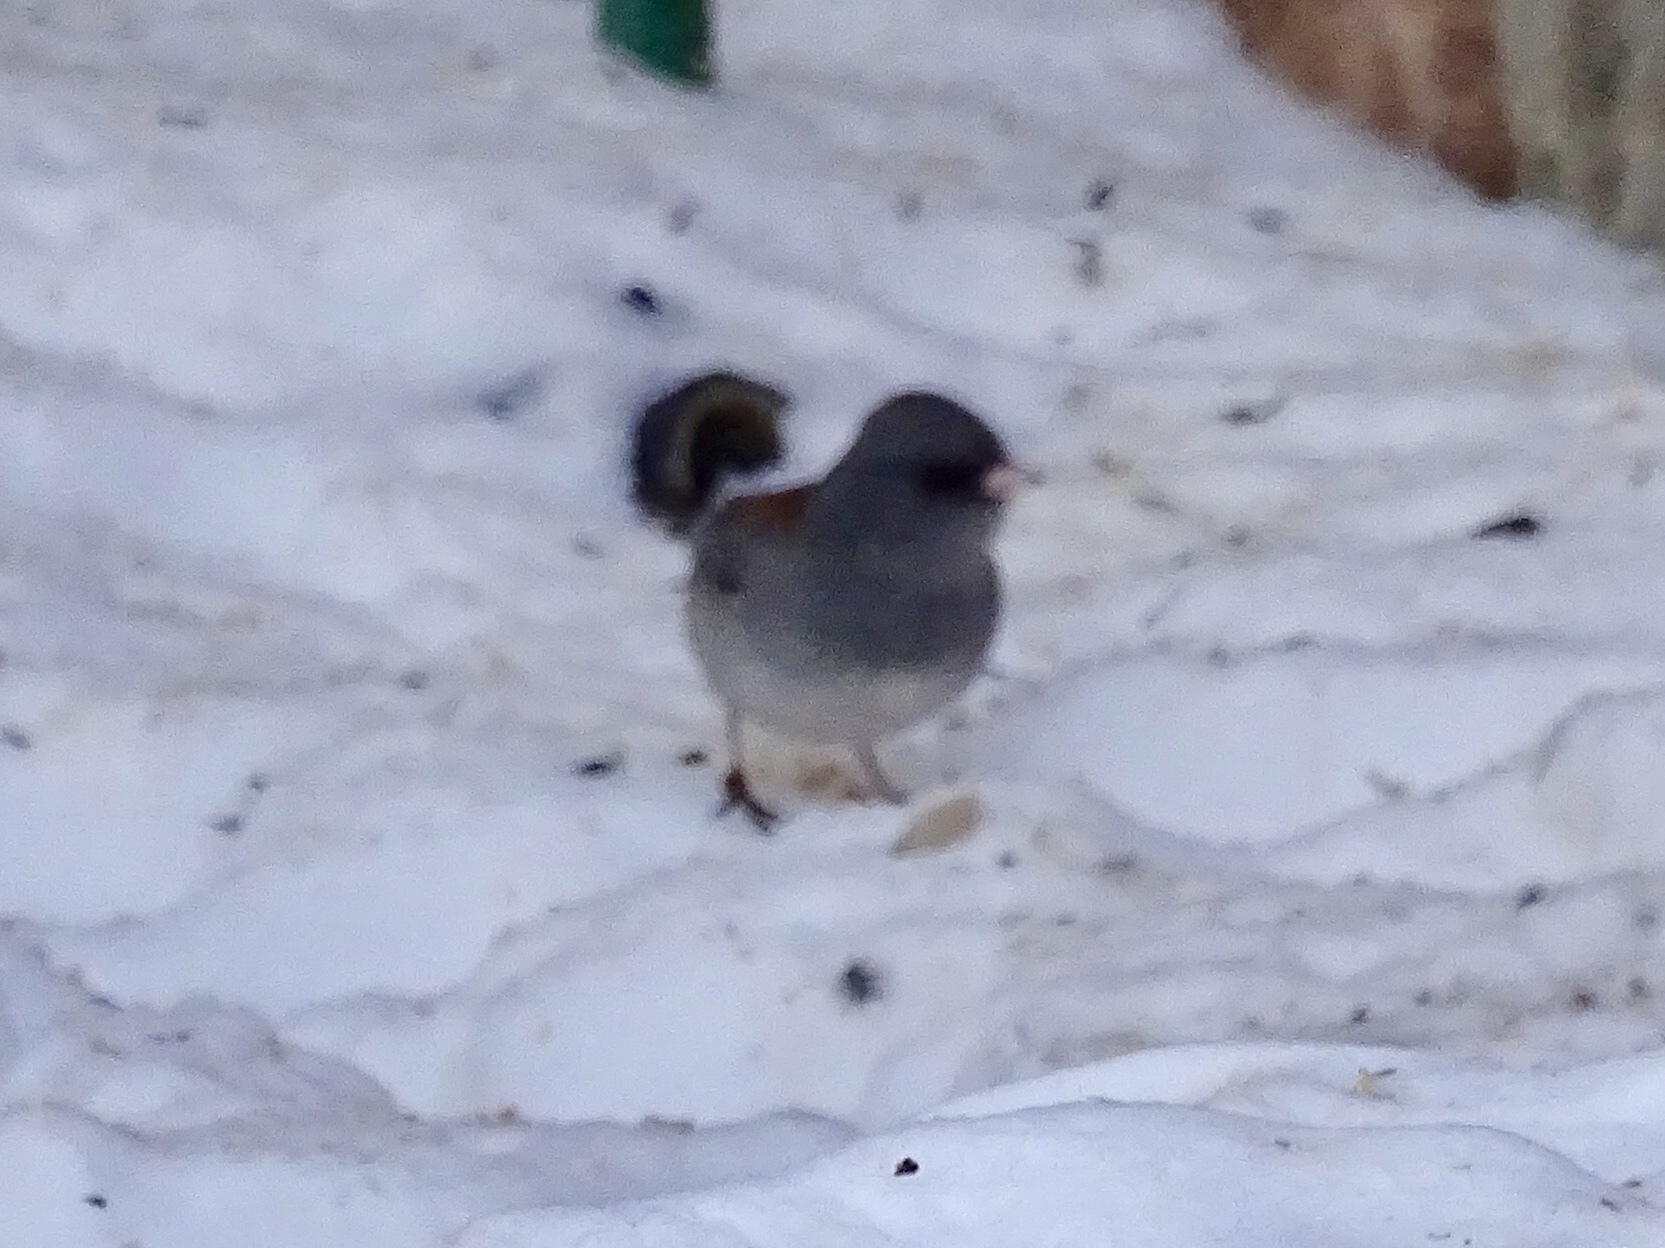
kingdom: Animalia
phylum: Chordata
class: Aves
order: Passeriformes
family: Passerellidae
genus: Junco
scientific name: Junco hyemalis
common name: Dark-eyed junco
